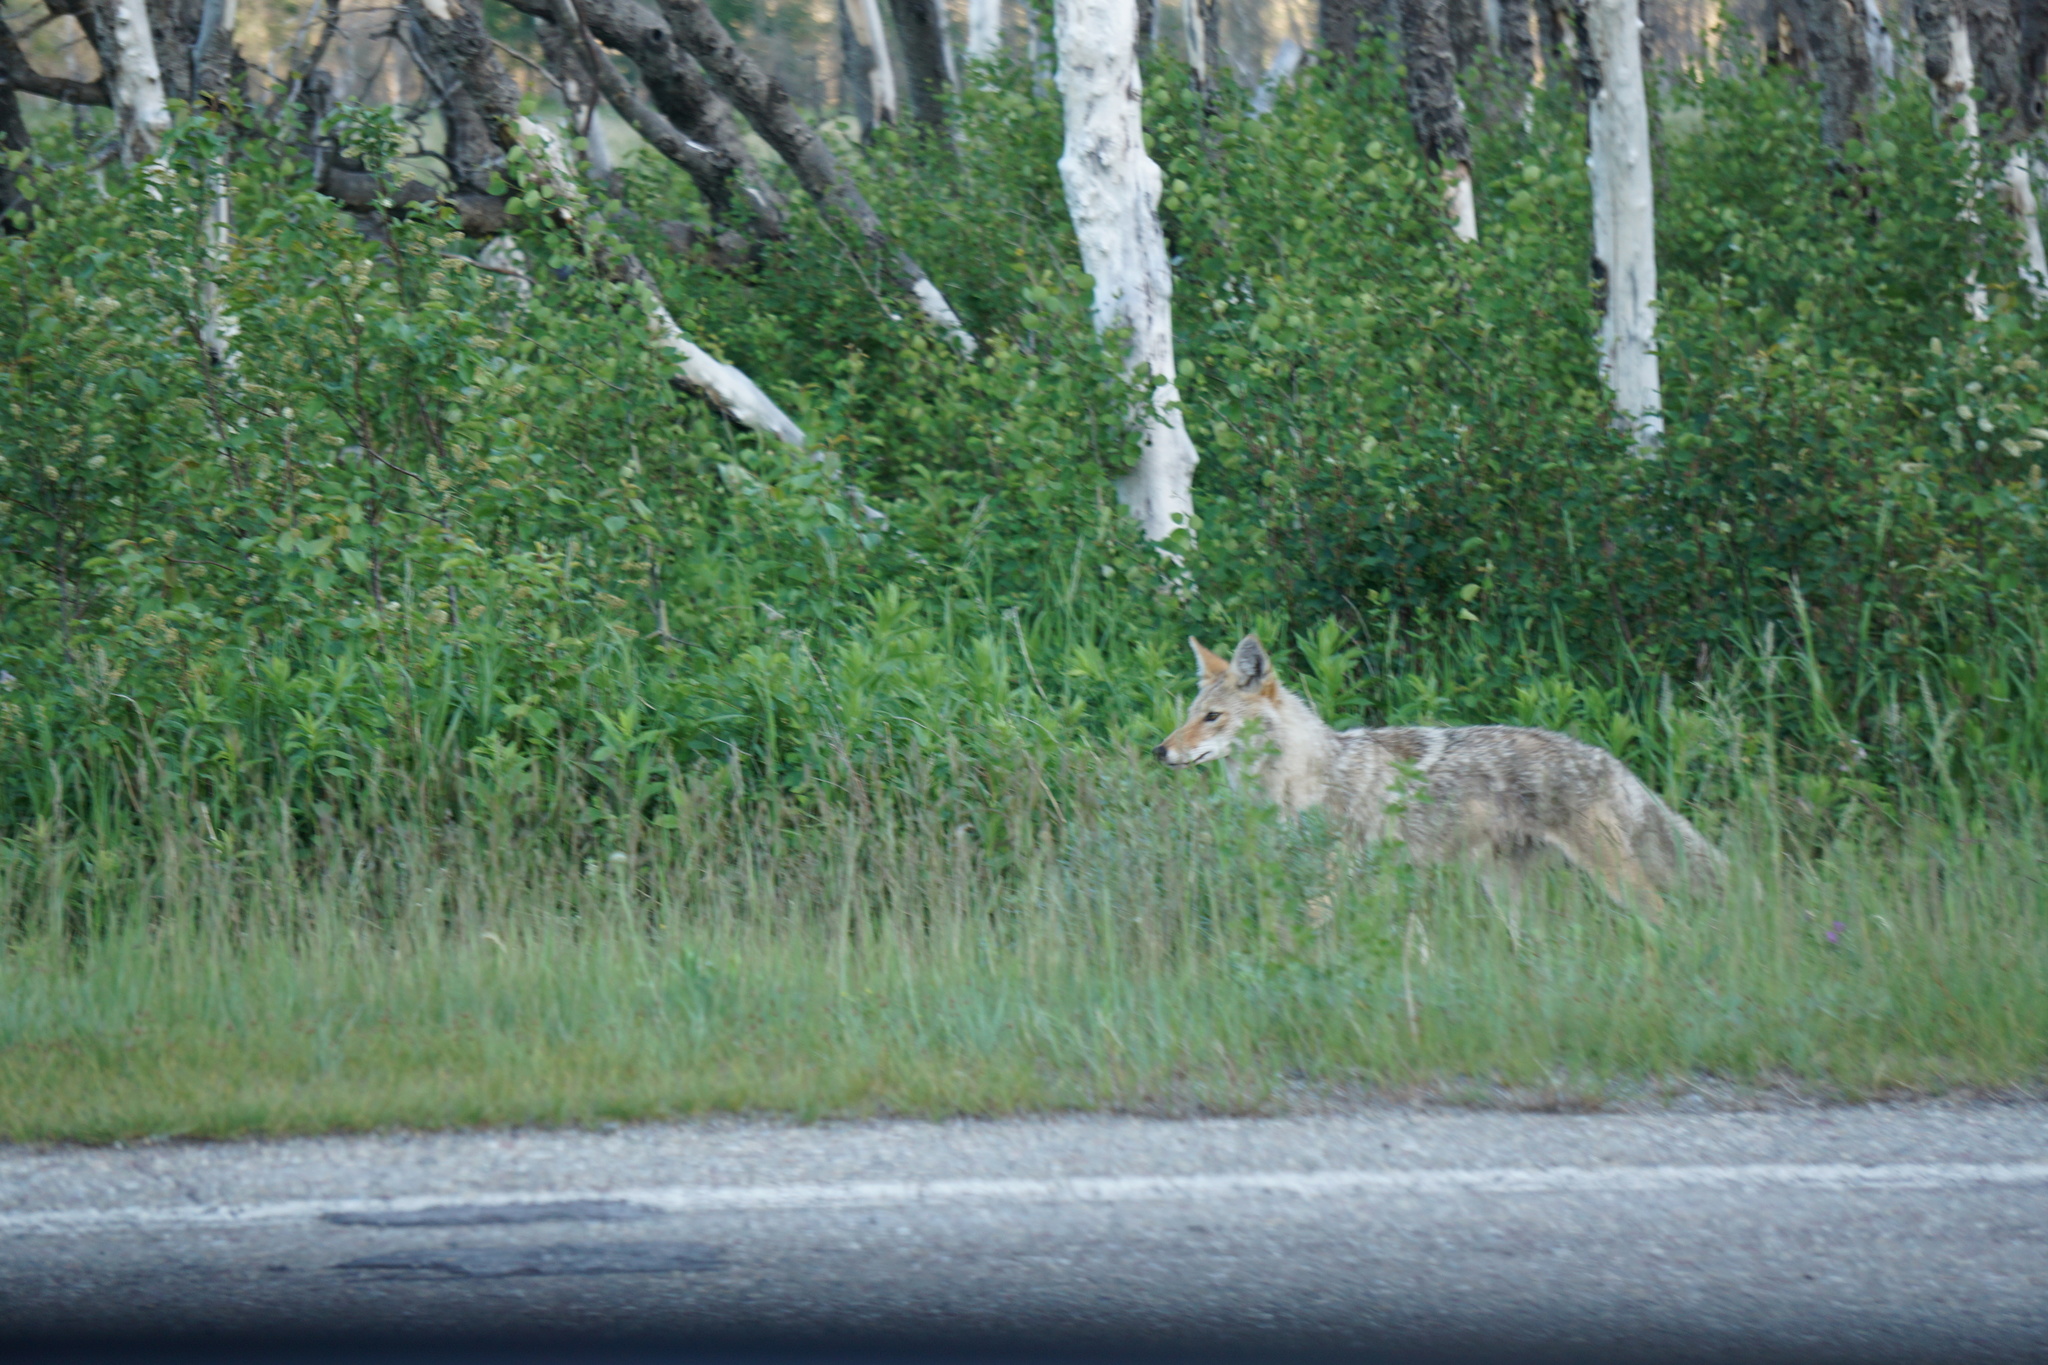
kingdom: Animalia
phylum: Chordata
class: Mammalia
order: Carnivora
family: Canidae
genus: Canis
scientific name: Canis latrans
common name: Coyote
